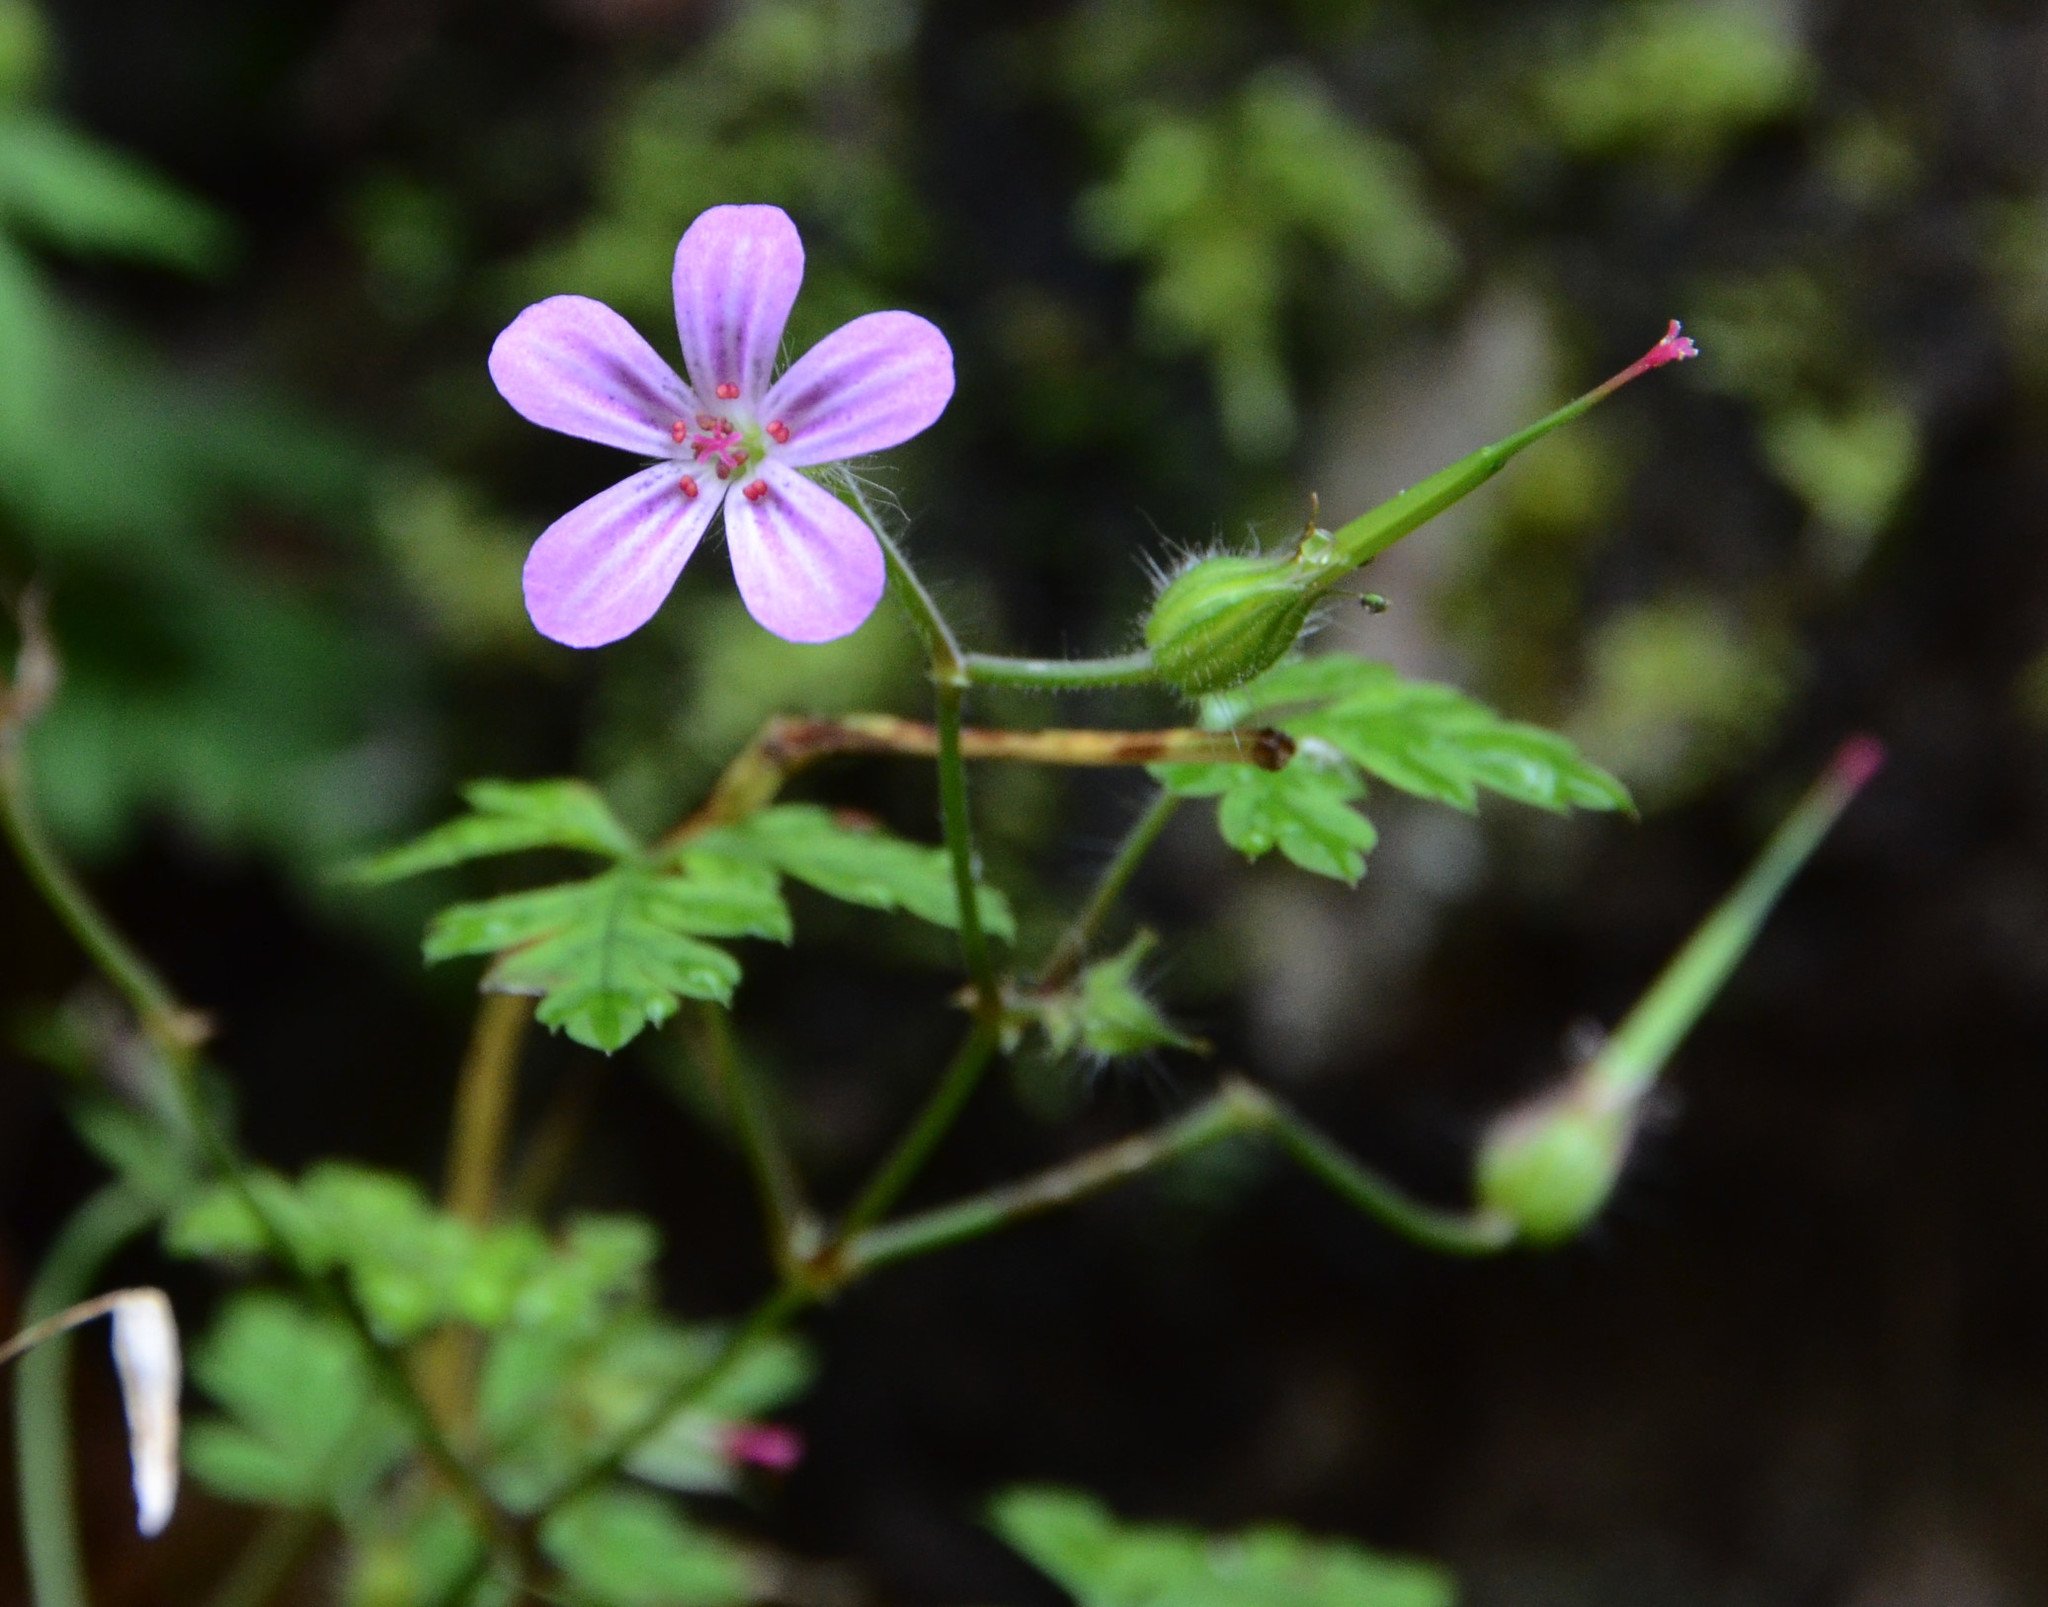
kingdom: Plantae
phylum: Tracheophyta
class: Magnoliopsida
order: Geraniales
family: Geraniaceae
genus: Geranium
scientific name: Geranium robertianum
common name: Herb-robert
